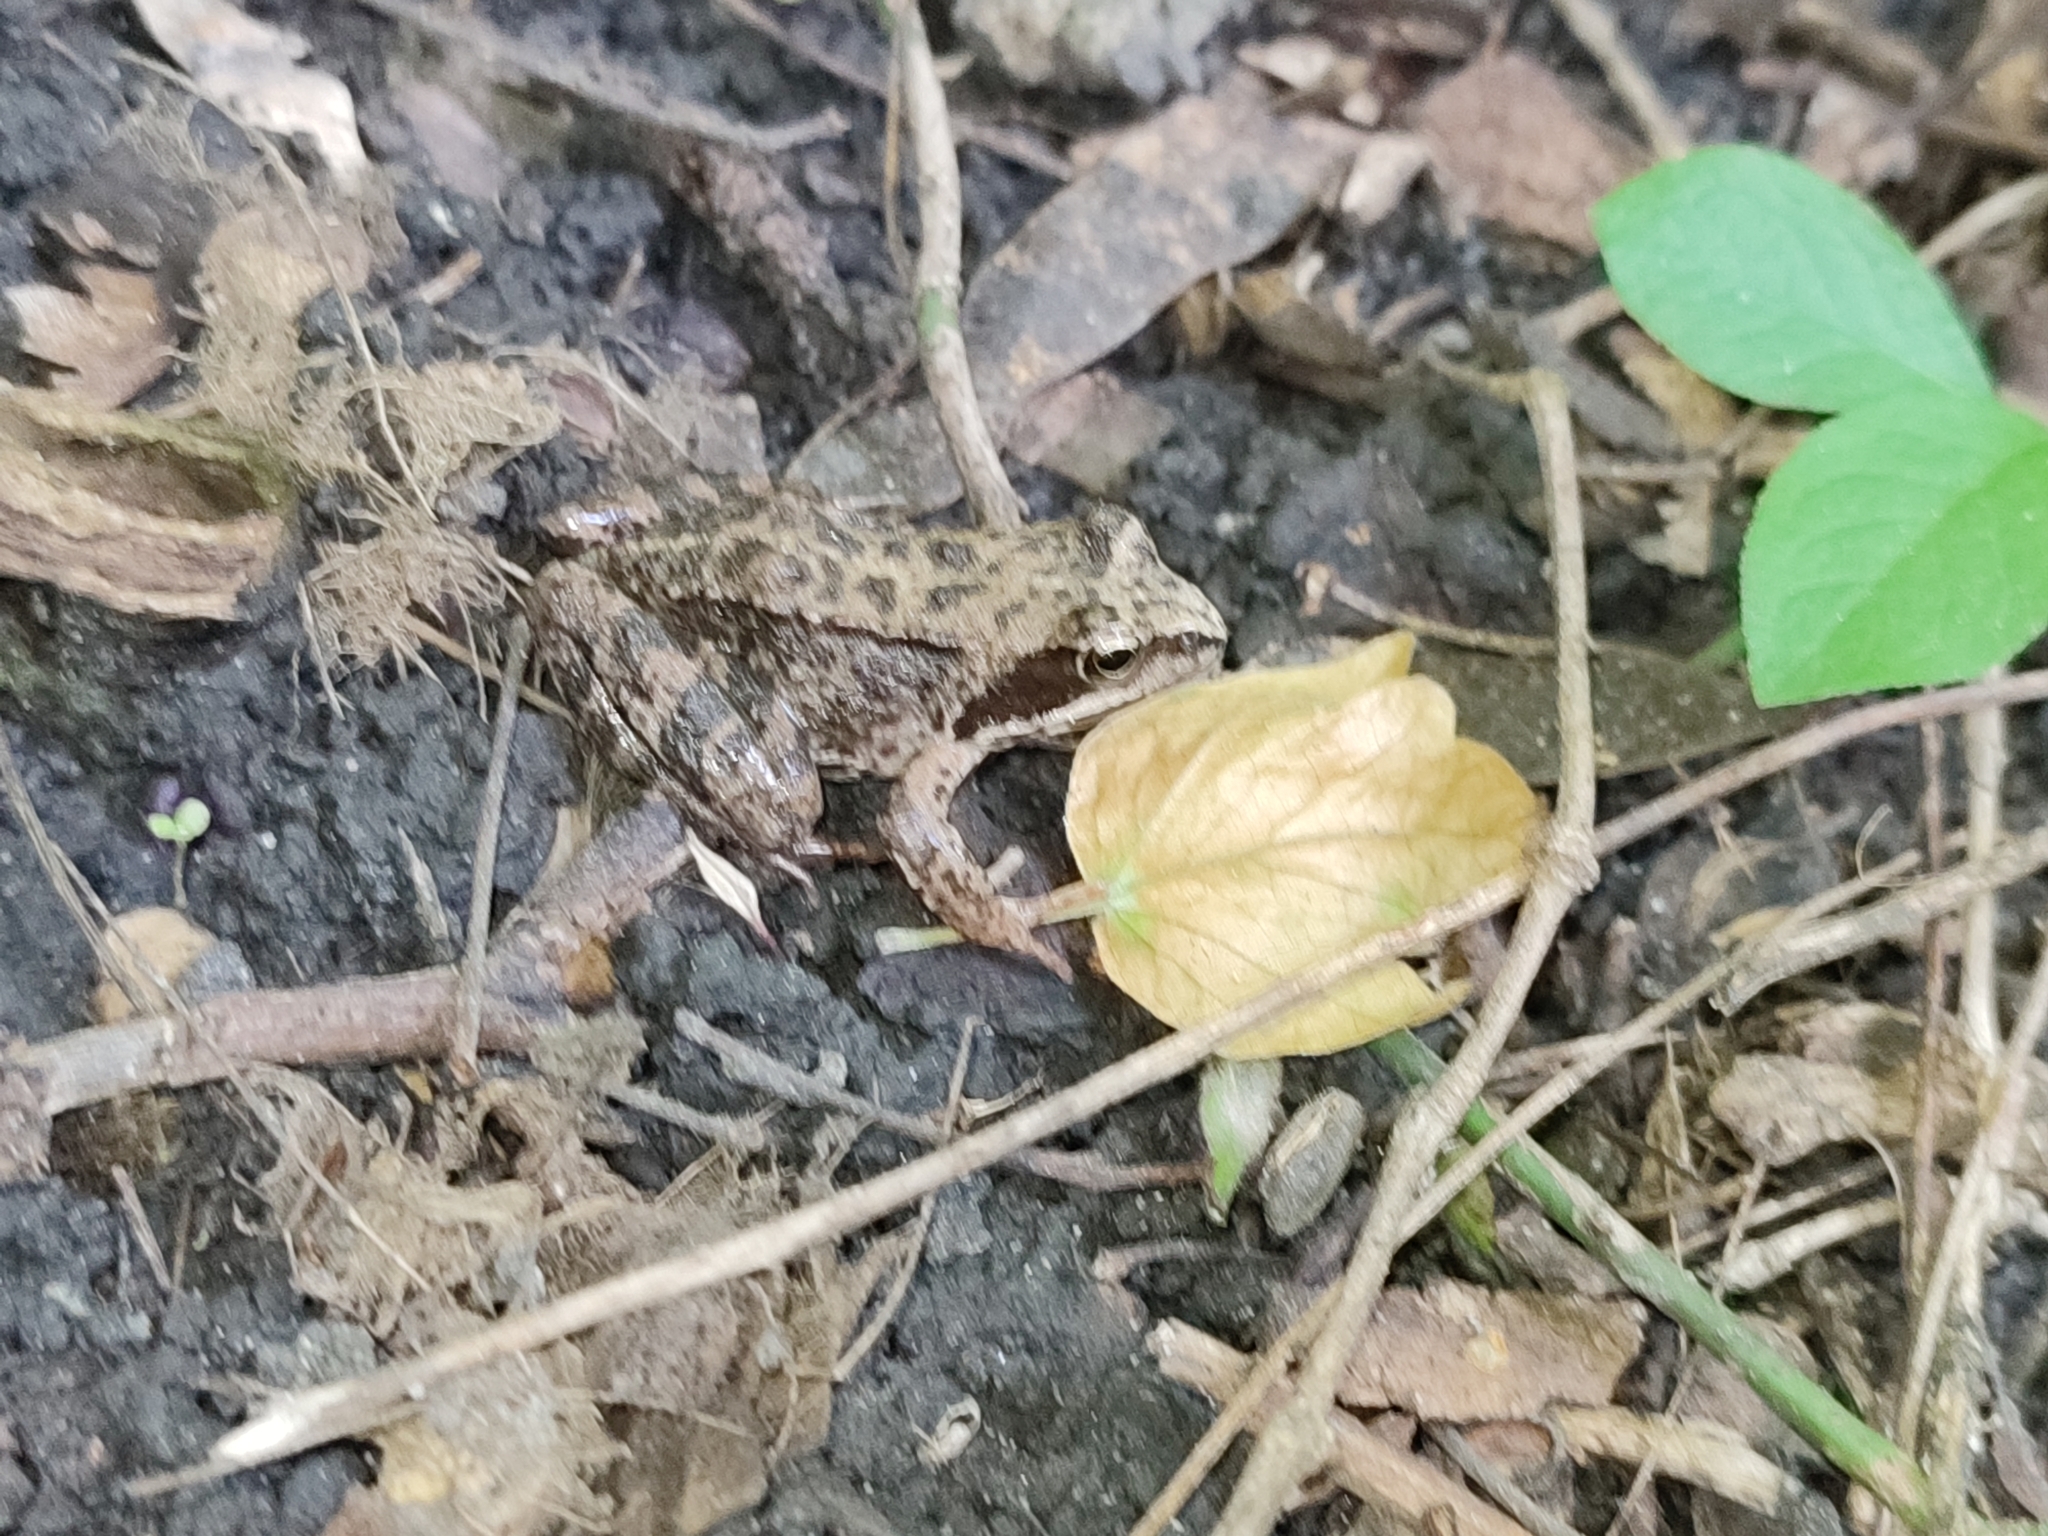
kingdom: Animalia
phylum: Chordata
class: Amphibia
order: Anura
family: Ranidae
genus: Rana
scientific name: Rana temporaria
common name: Common frog
